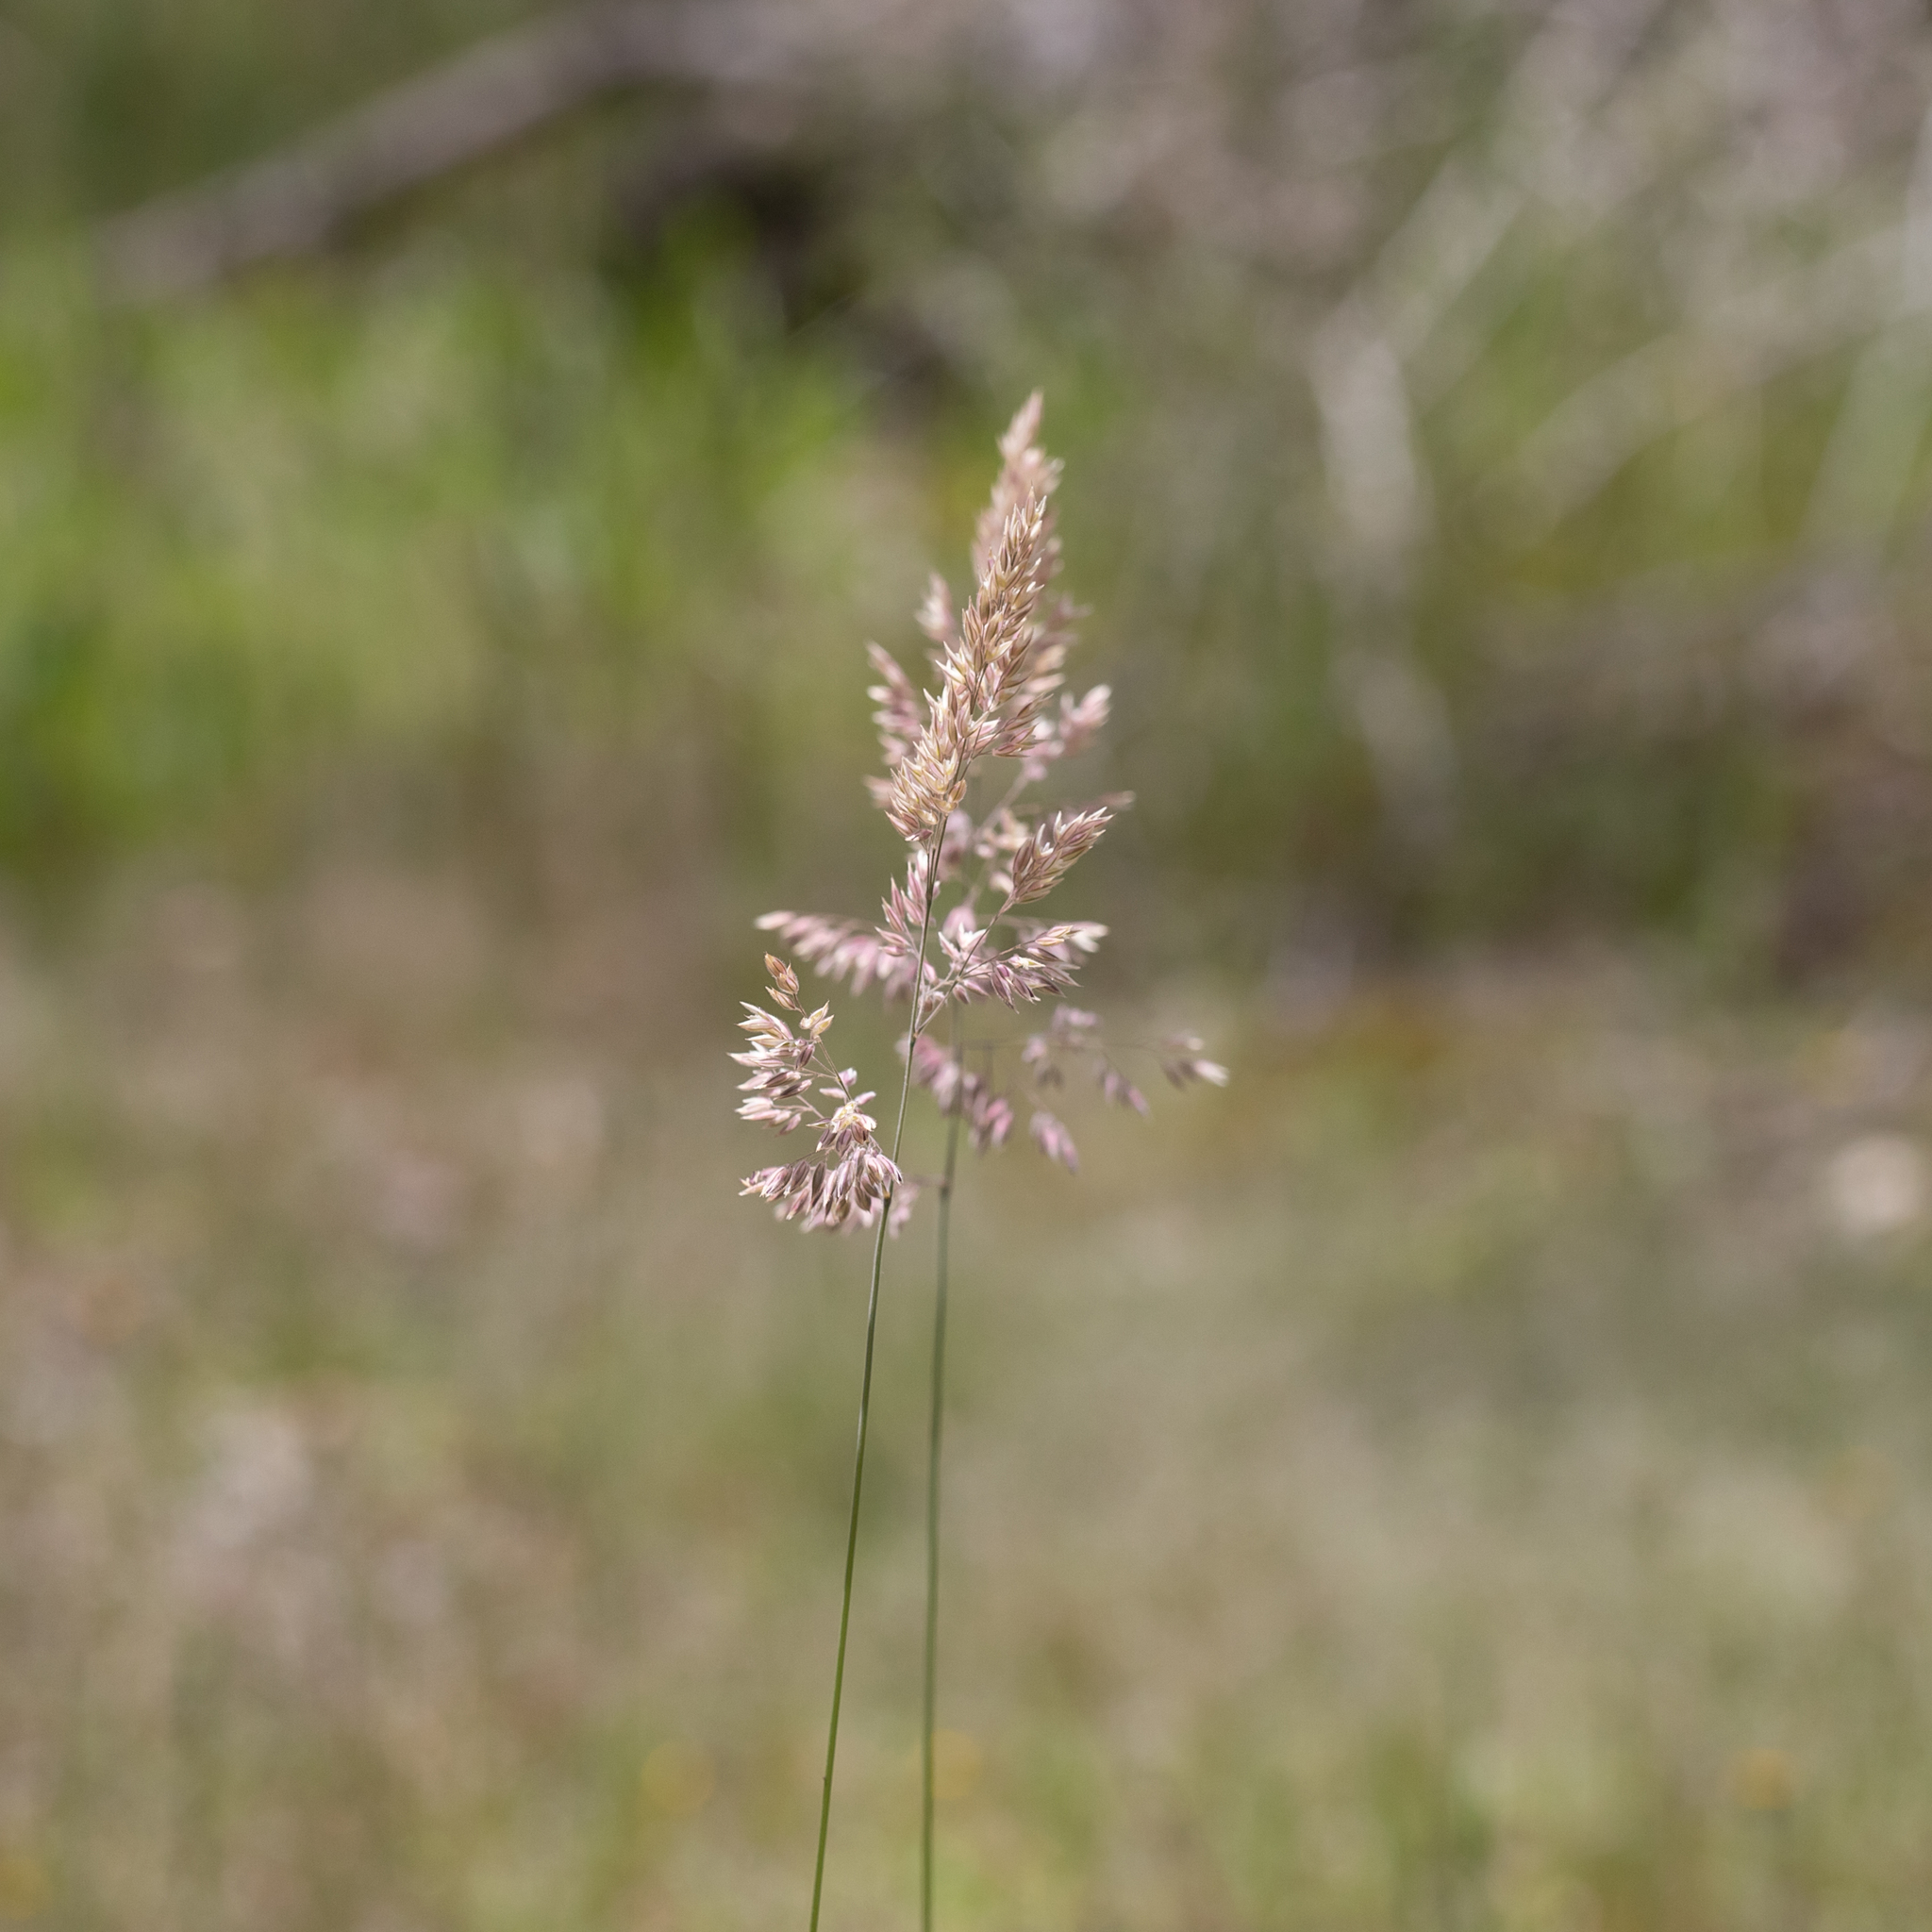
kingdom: Plantae
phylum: Tracheophyta
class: Liliopsida
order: Poales
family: Poaceae
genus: Holcus
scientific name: Holcus lanatus
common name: Yorkshire-fog
